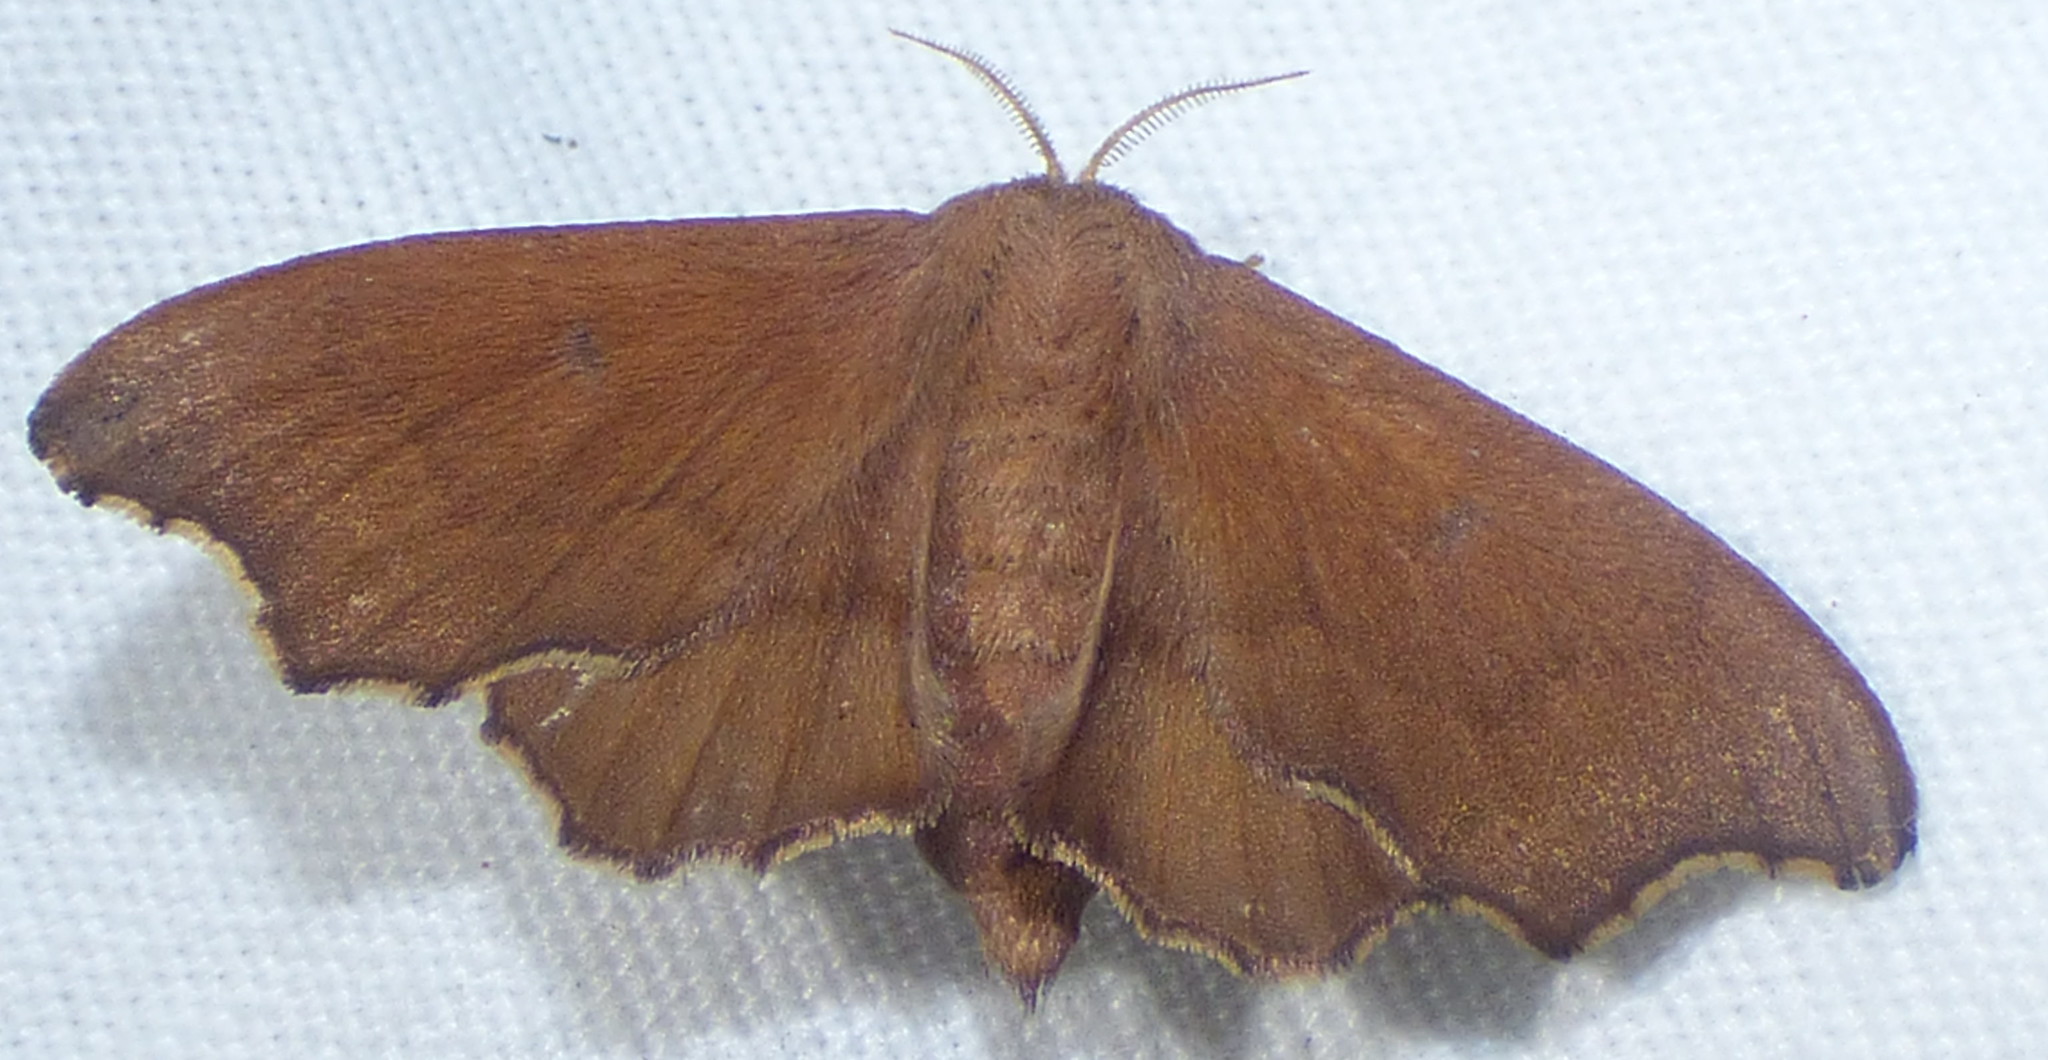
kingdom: Animalia
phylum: Arthropoda
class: Insecta
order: Lepidoptera
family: Mimallonidae
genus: Lacosoma
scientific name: Lacosoma chiridota
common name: Scalloped sack-bearer moth
